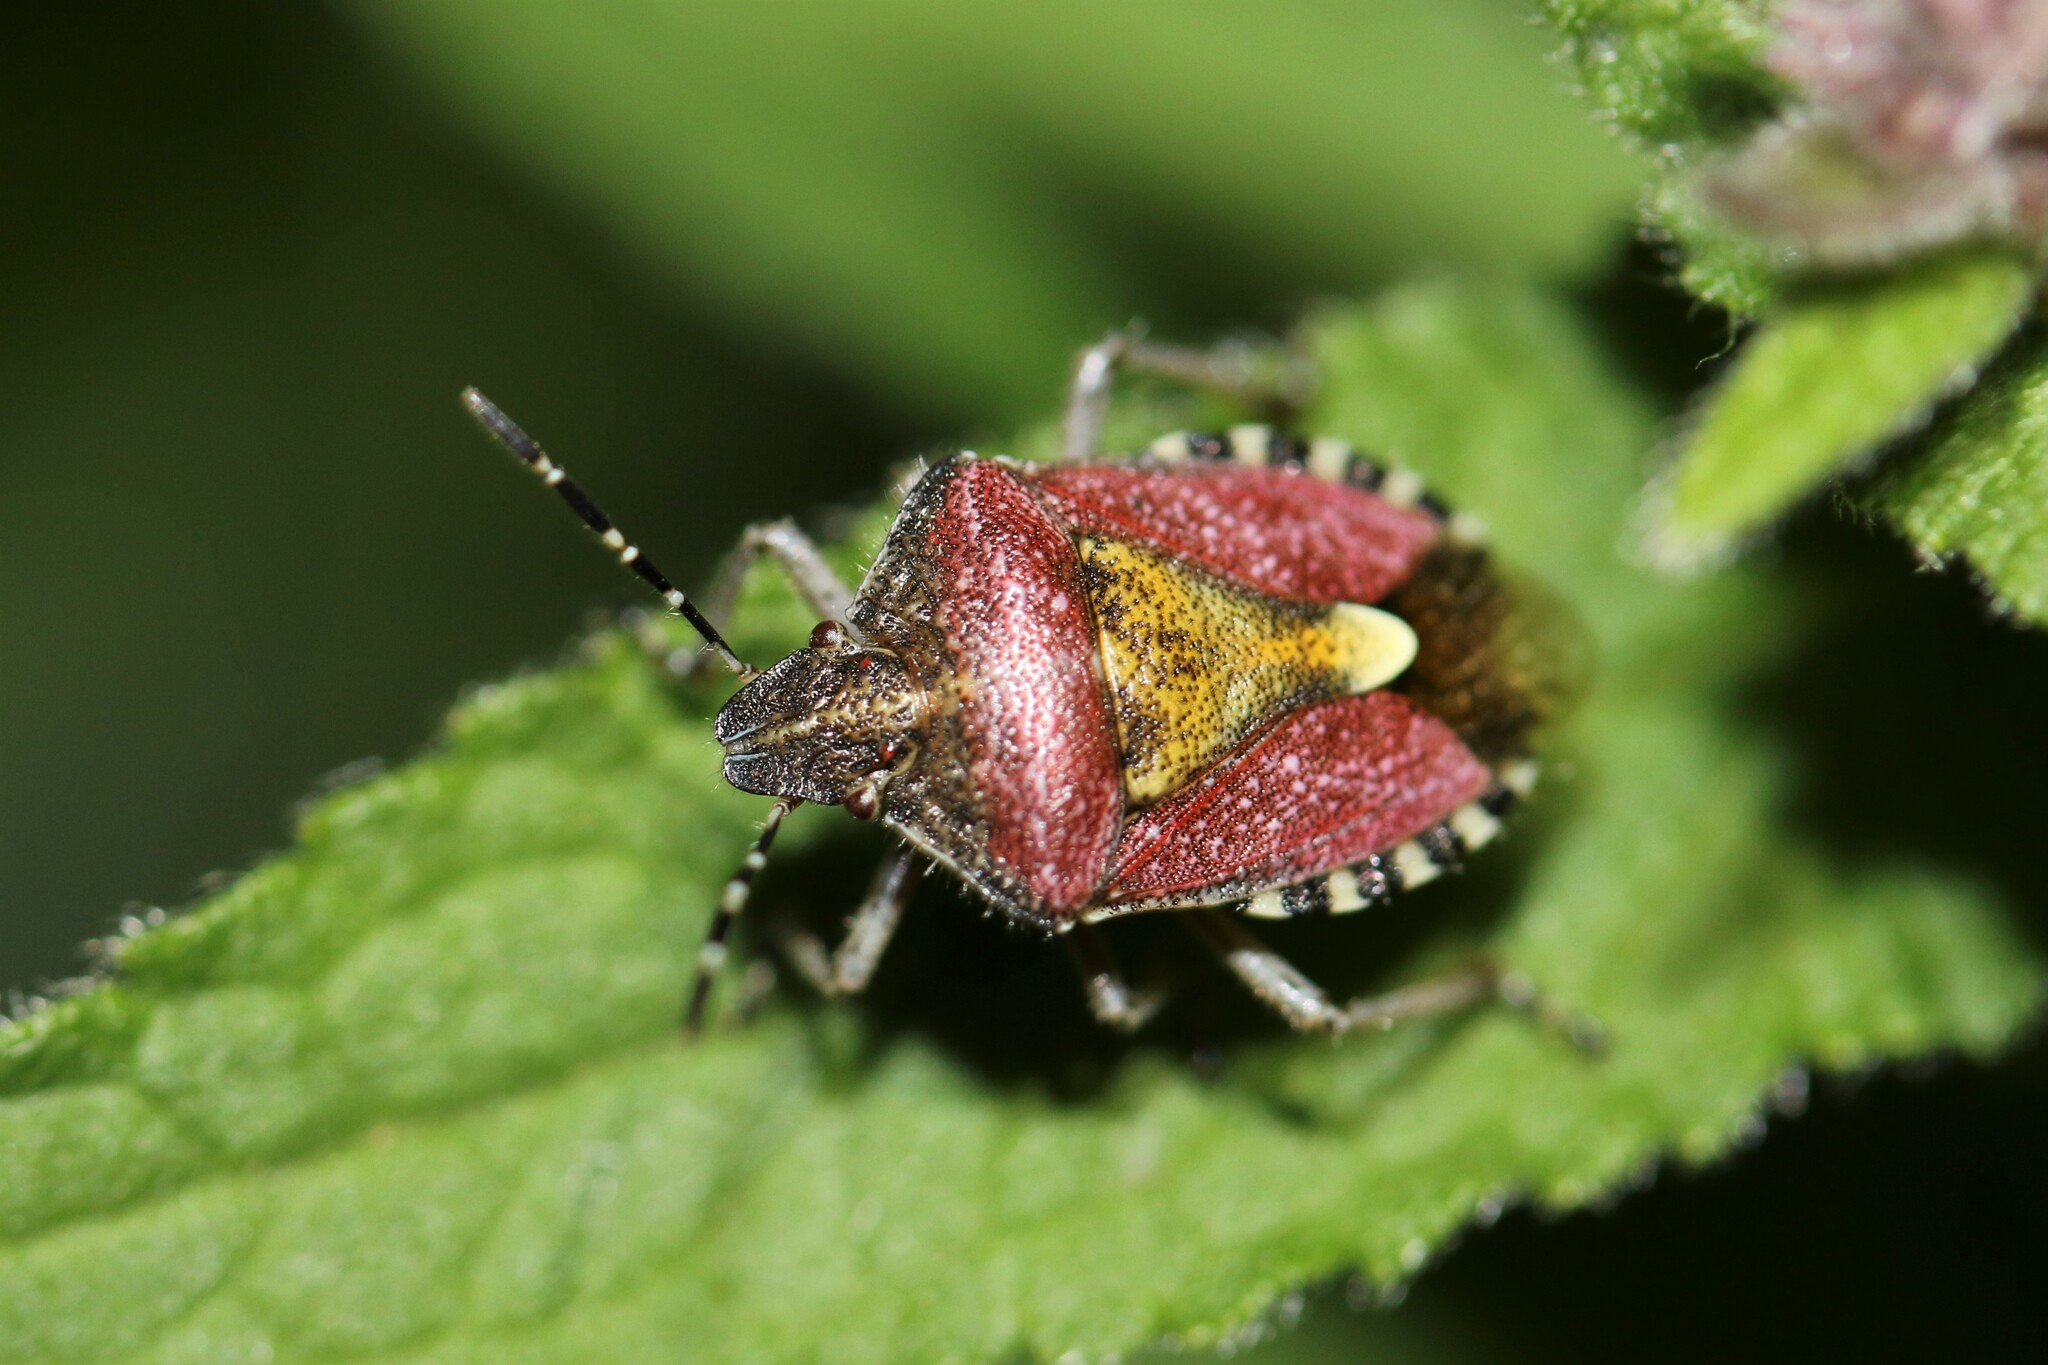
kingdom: Animalia
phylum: Arthropoda
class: Insecta
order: Hemiptera
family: Pentatomidae
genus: Dolycoris
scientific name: Dolycoris baccarum
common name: Sloe bug
